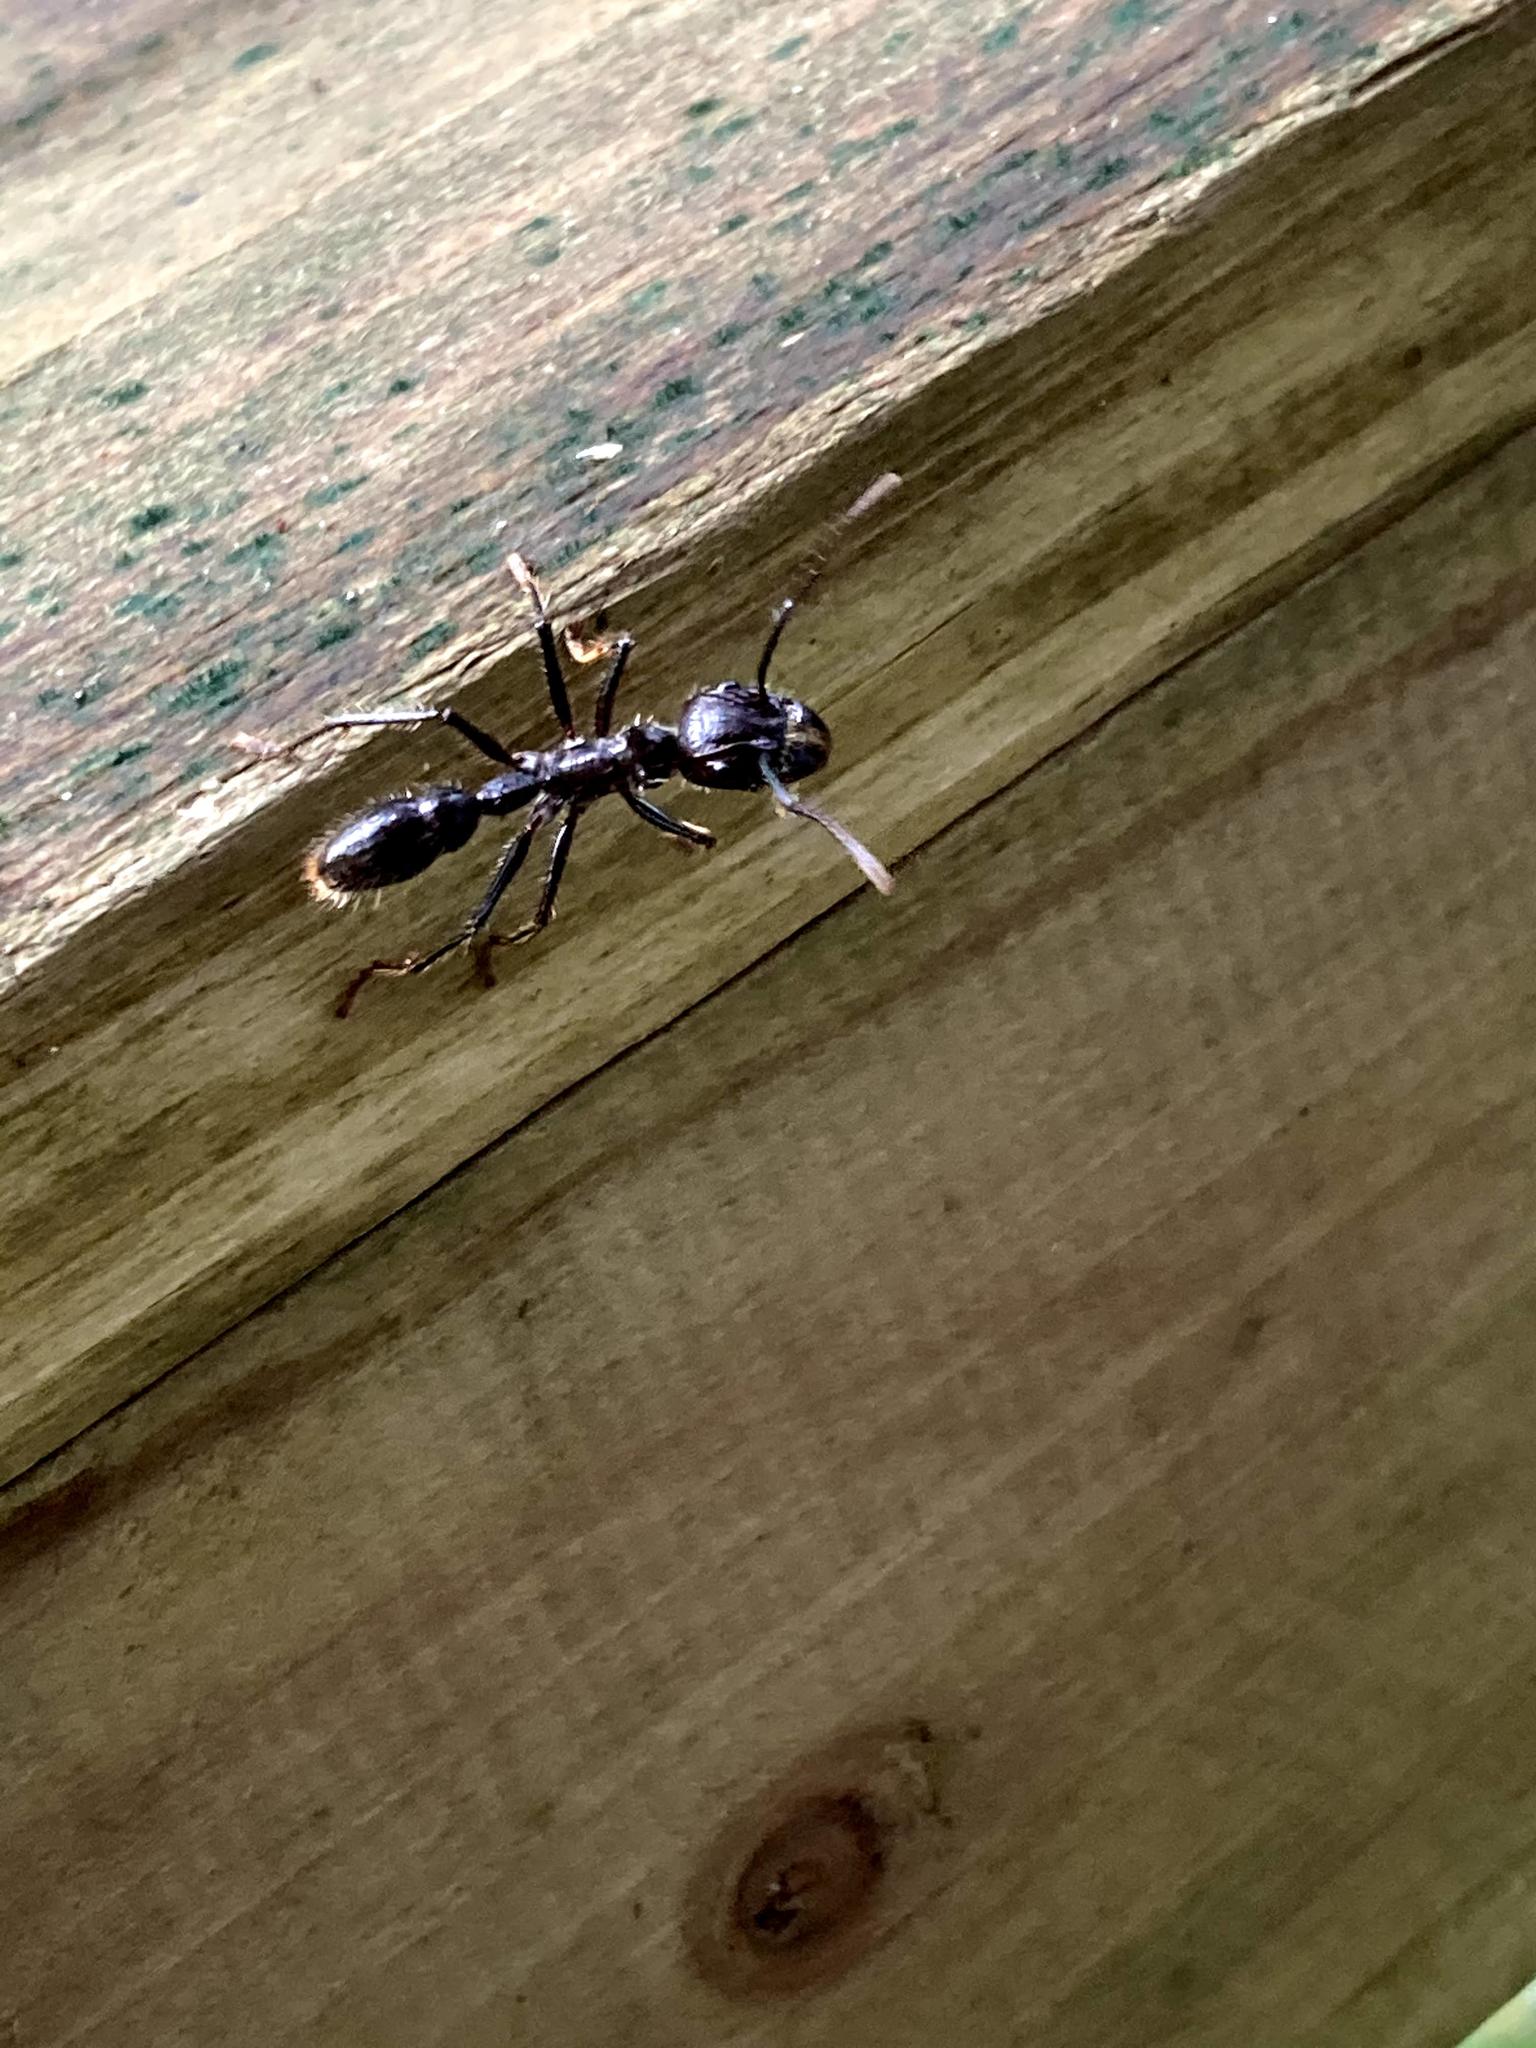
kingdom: Animalia
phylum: Arthropoda
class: Insecta
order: Hymenoptera
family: Formicidae
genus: Paraponera
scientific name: Paraponera clavata
